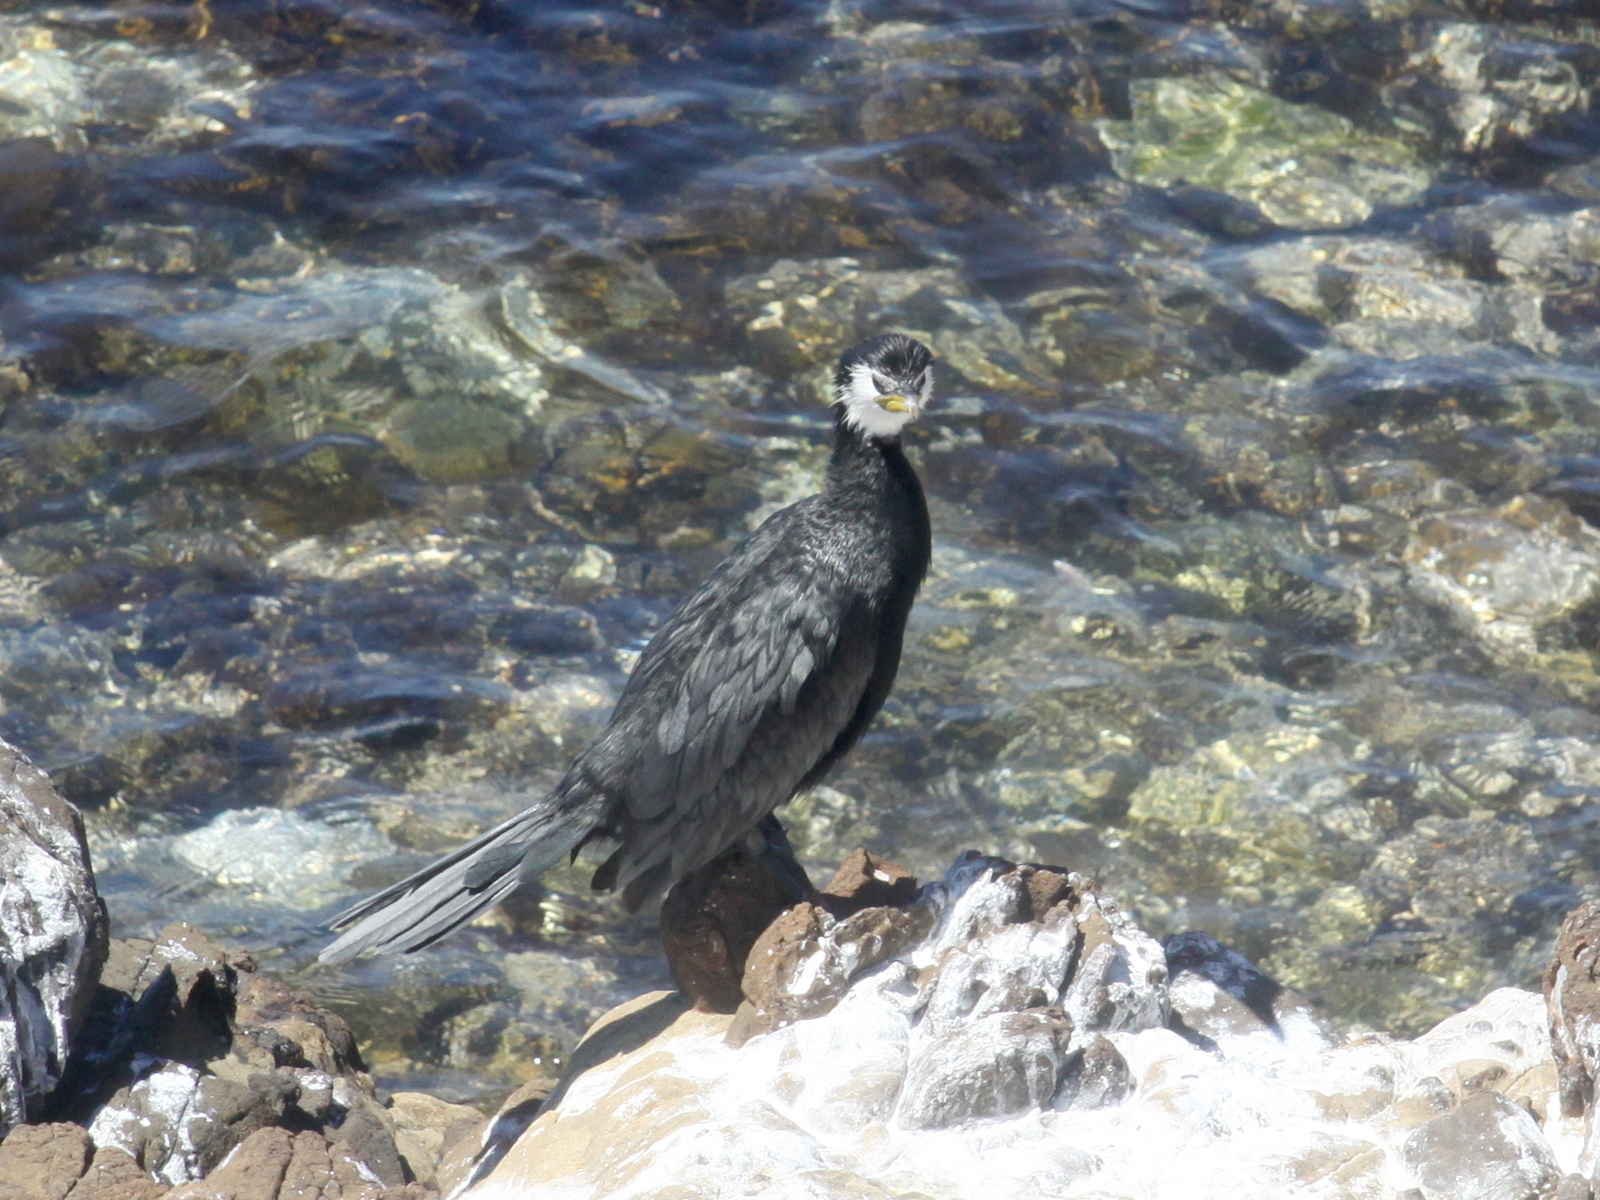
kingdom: Animalia
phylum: Chordata
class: Aves
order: Suliformes
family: Phalacrocoracidae
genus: Microcarbo
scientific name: Microcarbo melanoleucos
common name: Little pied cormorant
